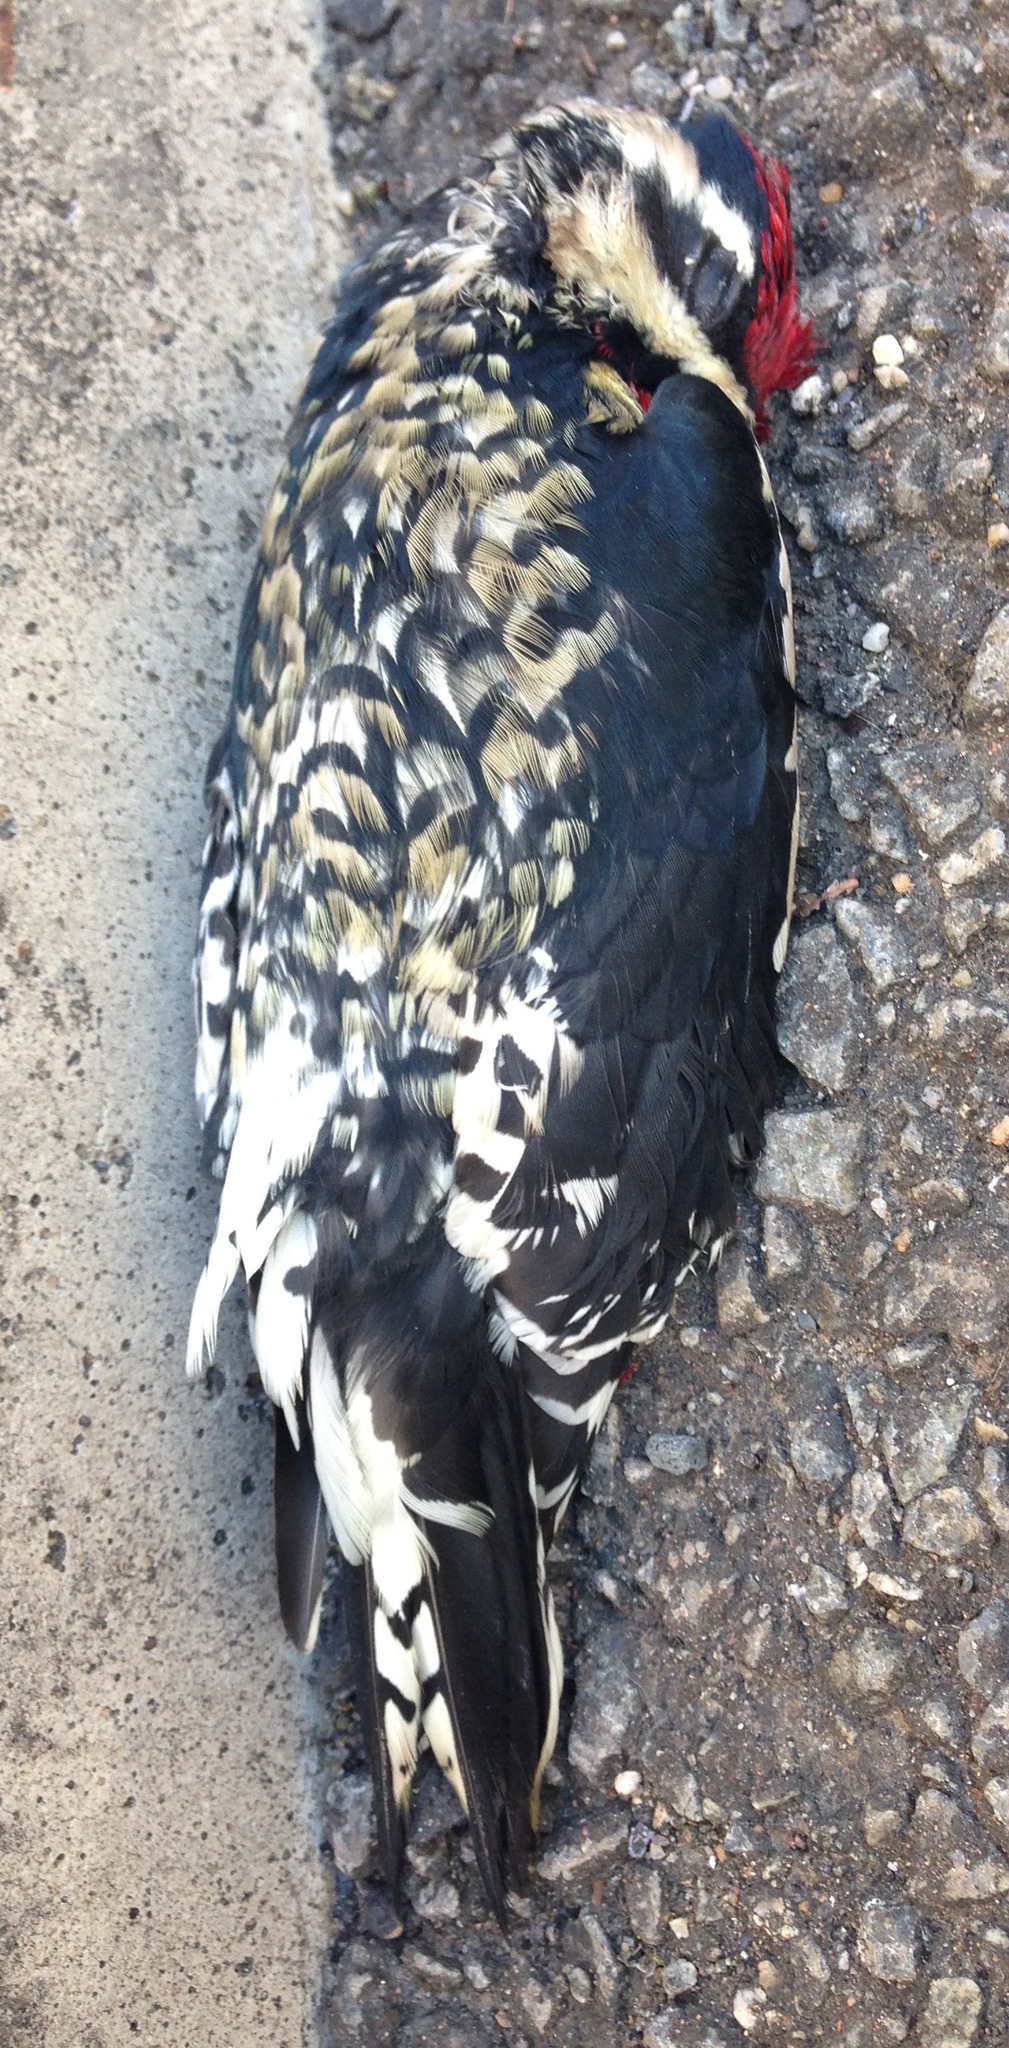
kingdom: Animalia
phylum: Chordata
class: Aves
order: Piciformes
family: Picidae
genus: Sphyrapicus
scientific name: Sphyrapicus varius
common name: Yellow-bellied sapsucker
